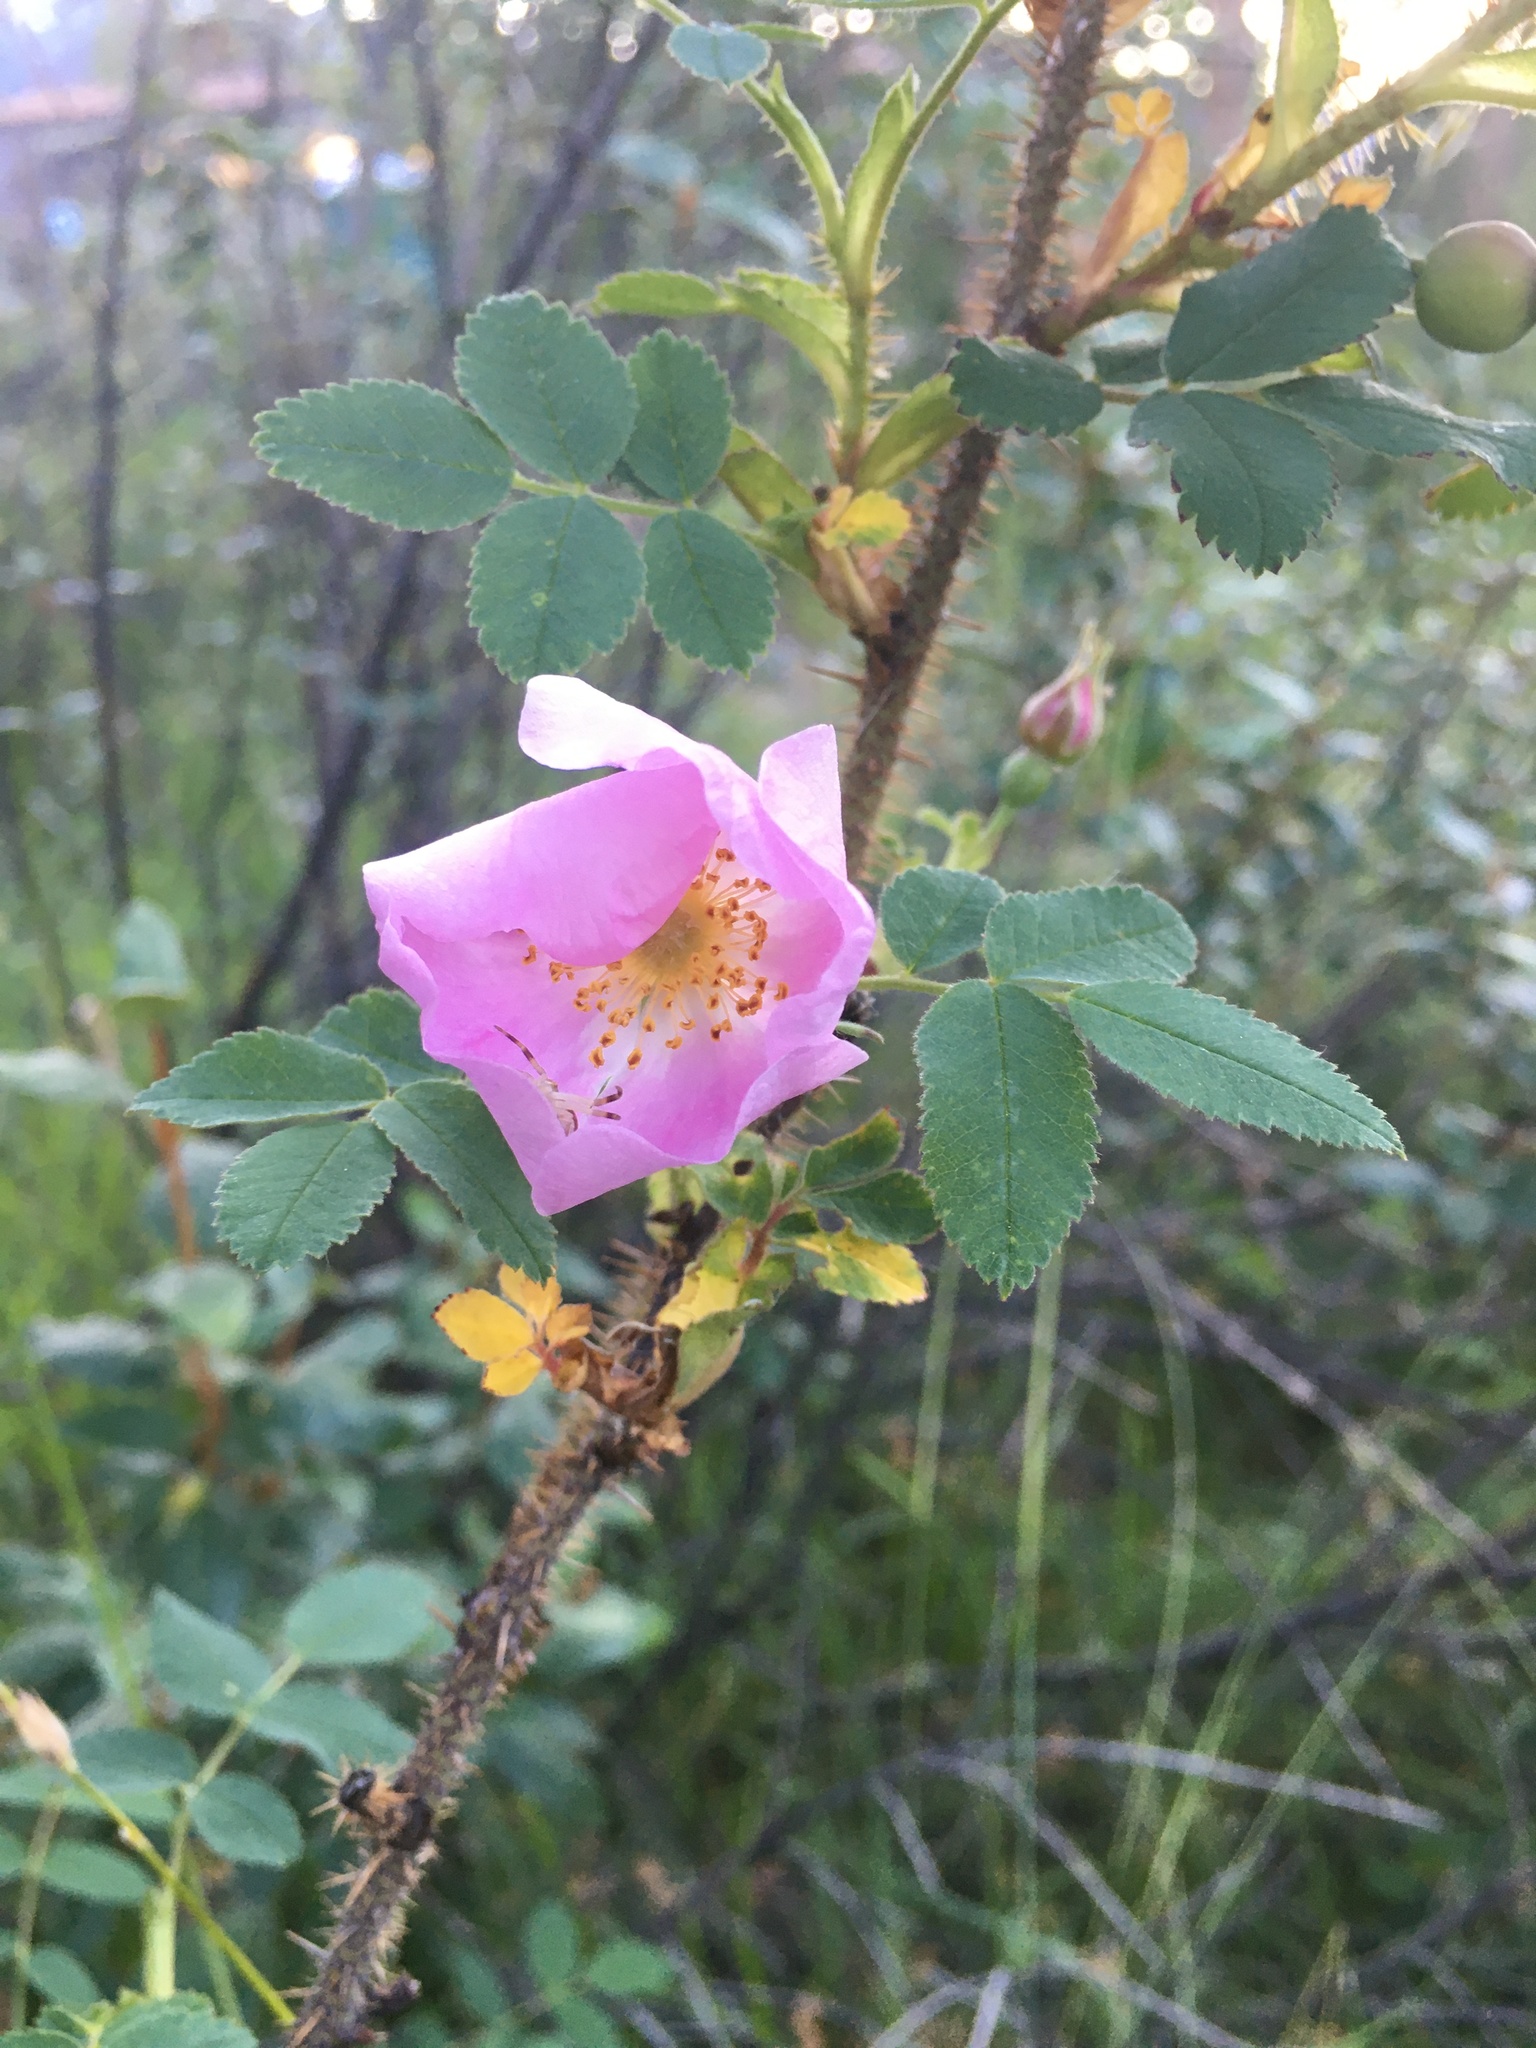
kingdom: Plantae
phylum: Tracheophyta
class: Magnoliopsida
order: Rosales
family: Rosaceae
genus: Rosa
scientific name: Rosa acicularis
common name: Prickly rose
